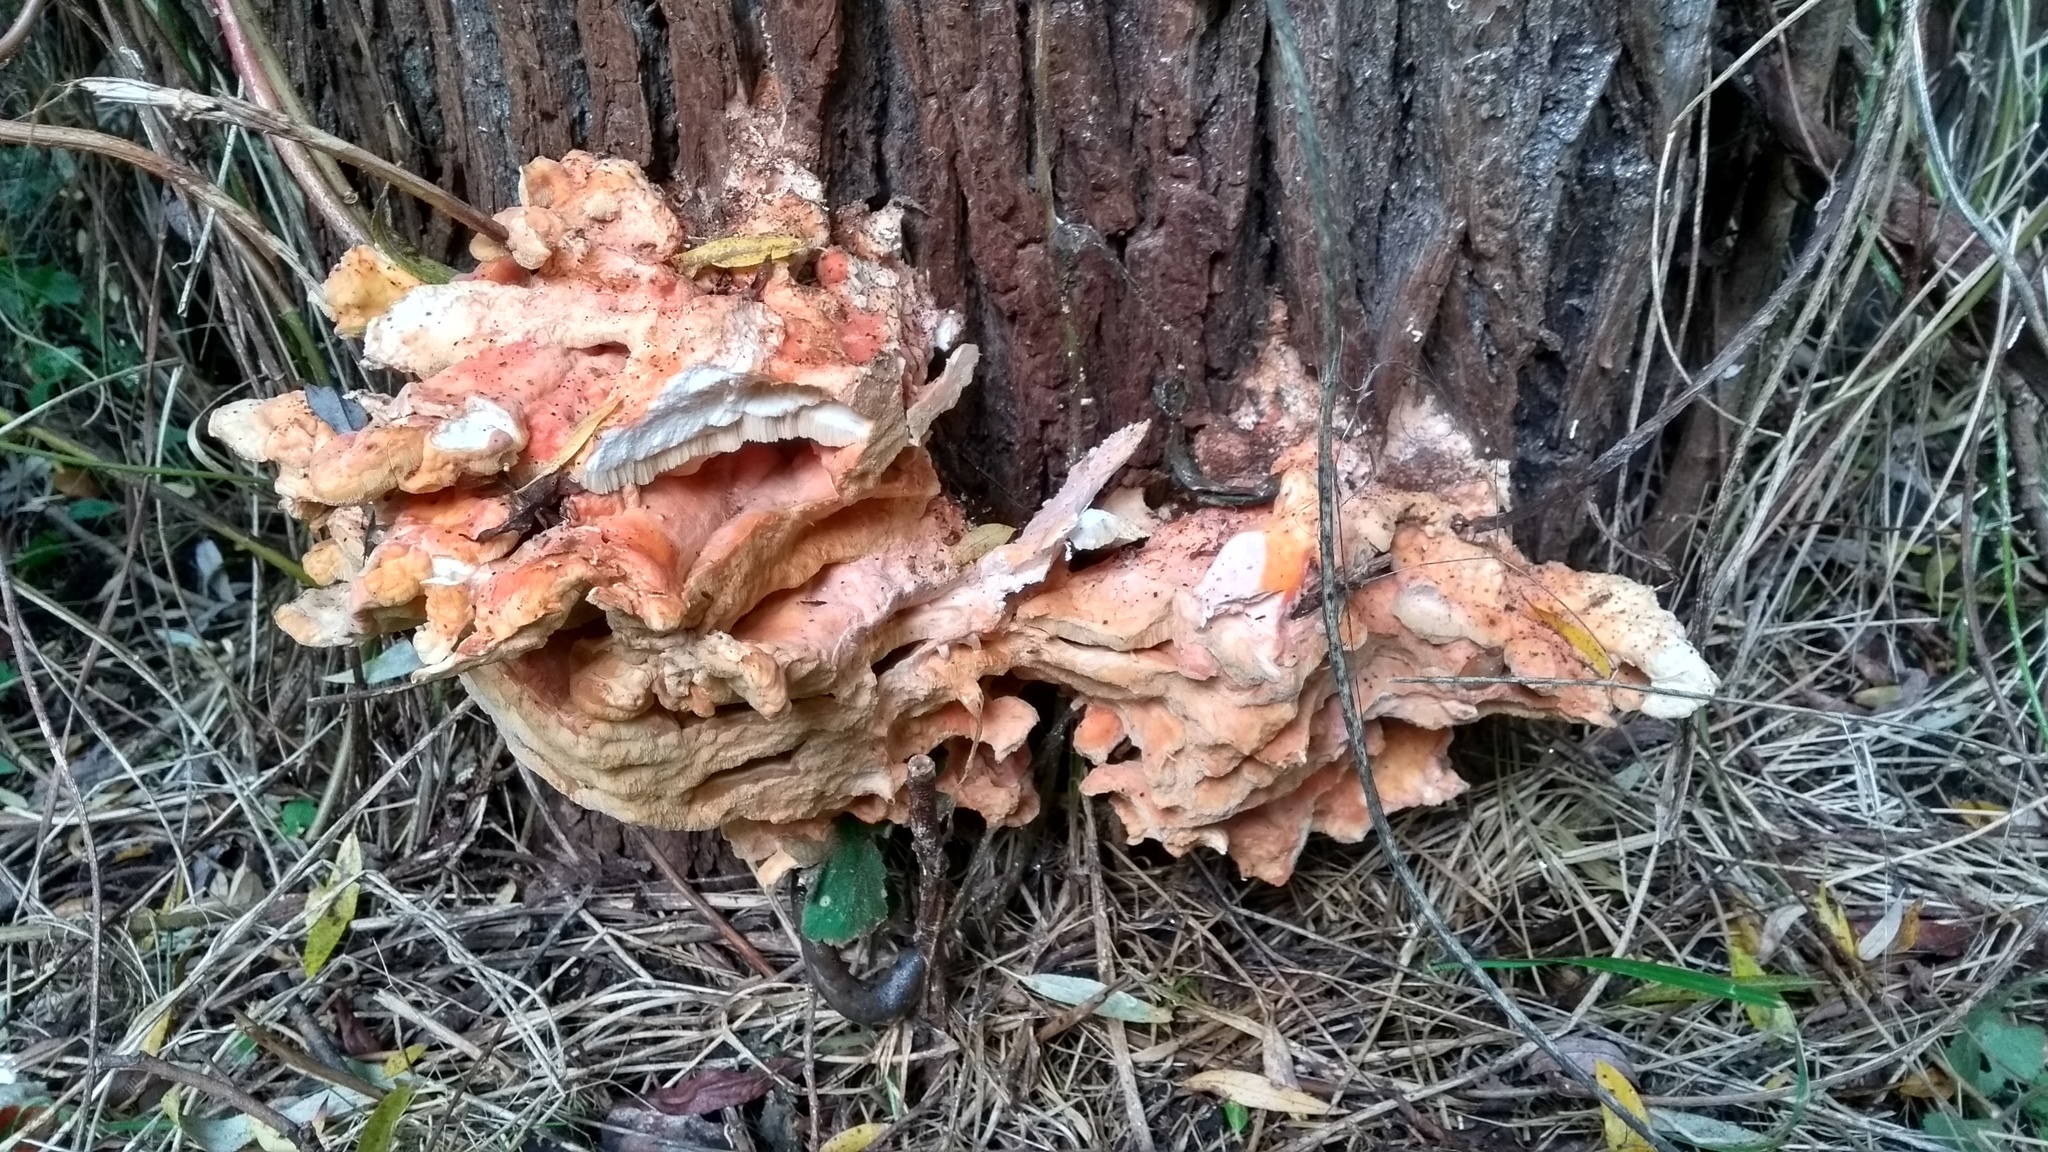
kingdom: Fungi
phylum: Basidiomycota
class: Agaricomycetes
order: Polyporales
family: Laetiporaceae
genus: Laetiporus
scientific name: Laetiporus sulphureus
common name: Chicken of the woods
